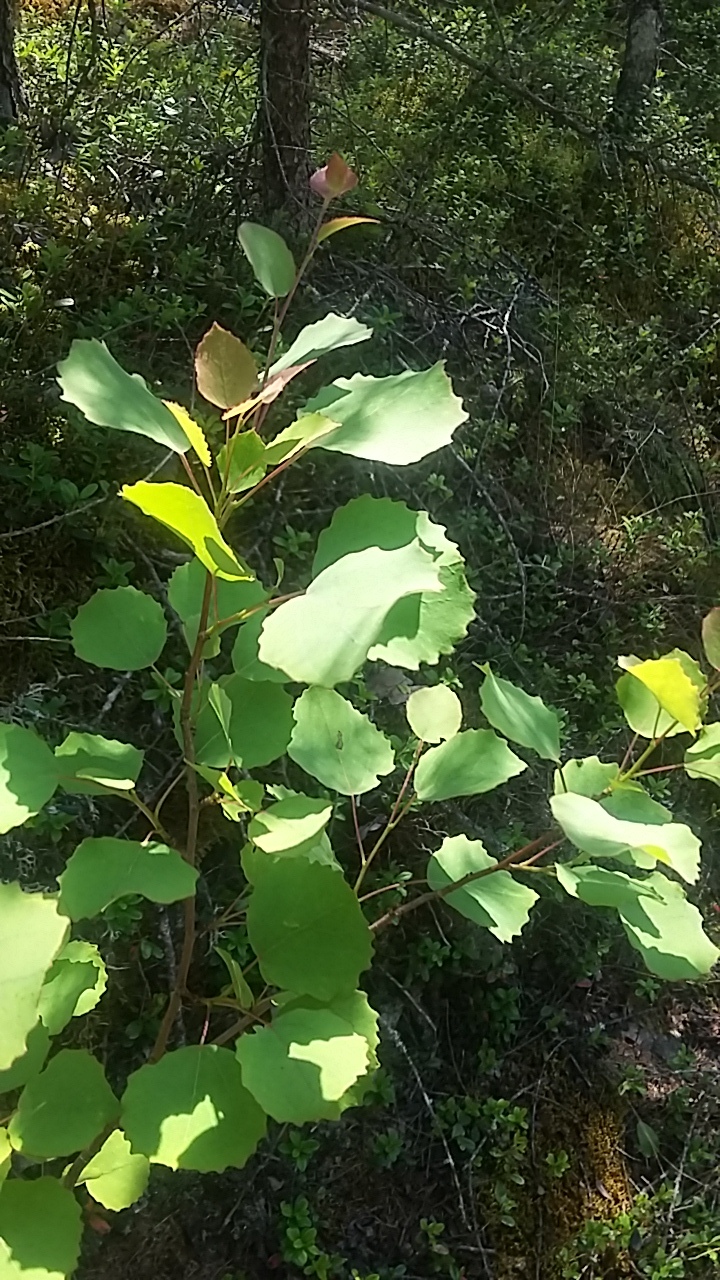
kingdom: Plantae
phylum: Tracheophyta
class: Magnoliopsida
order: Malpighiales
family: Salicaceae
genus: Populus
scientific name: Populus tremula
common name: European aspen
